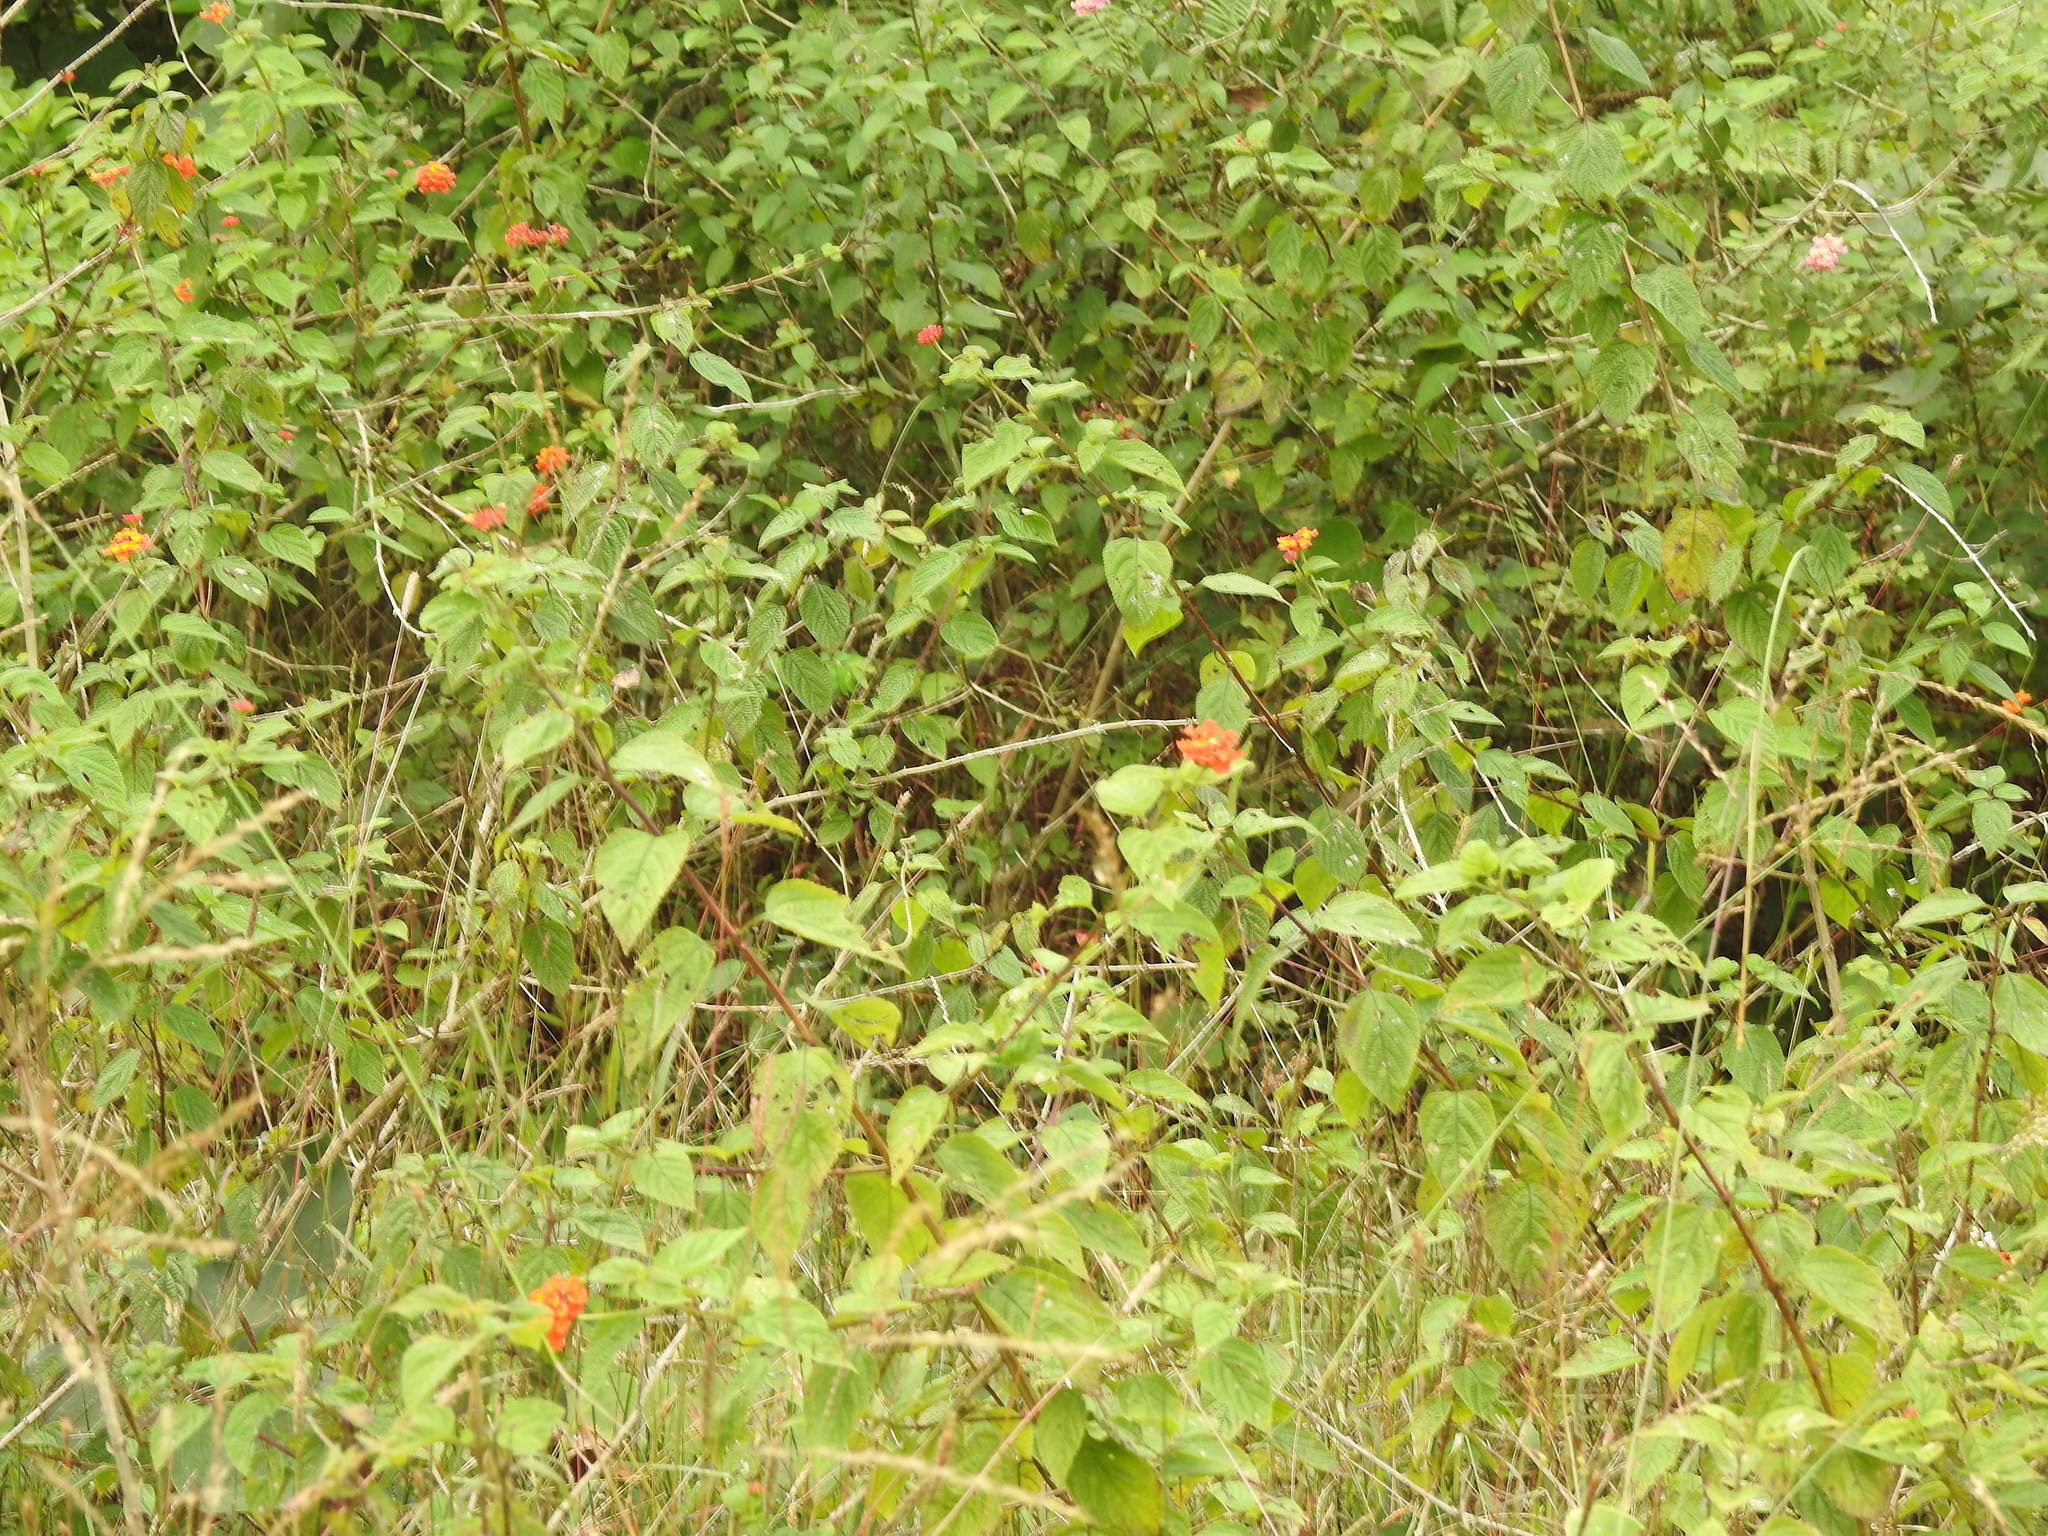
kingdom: Plantae
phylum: Tracheophyta
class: Magnoliopsida
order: Lamiales
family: Verbenaceae
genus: Lantana
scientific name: Lantana camara
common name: Lantana
